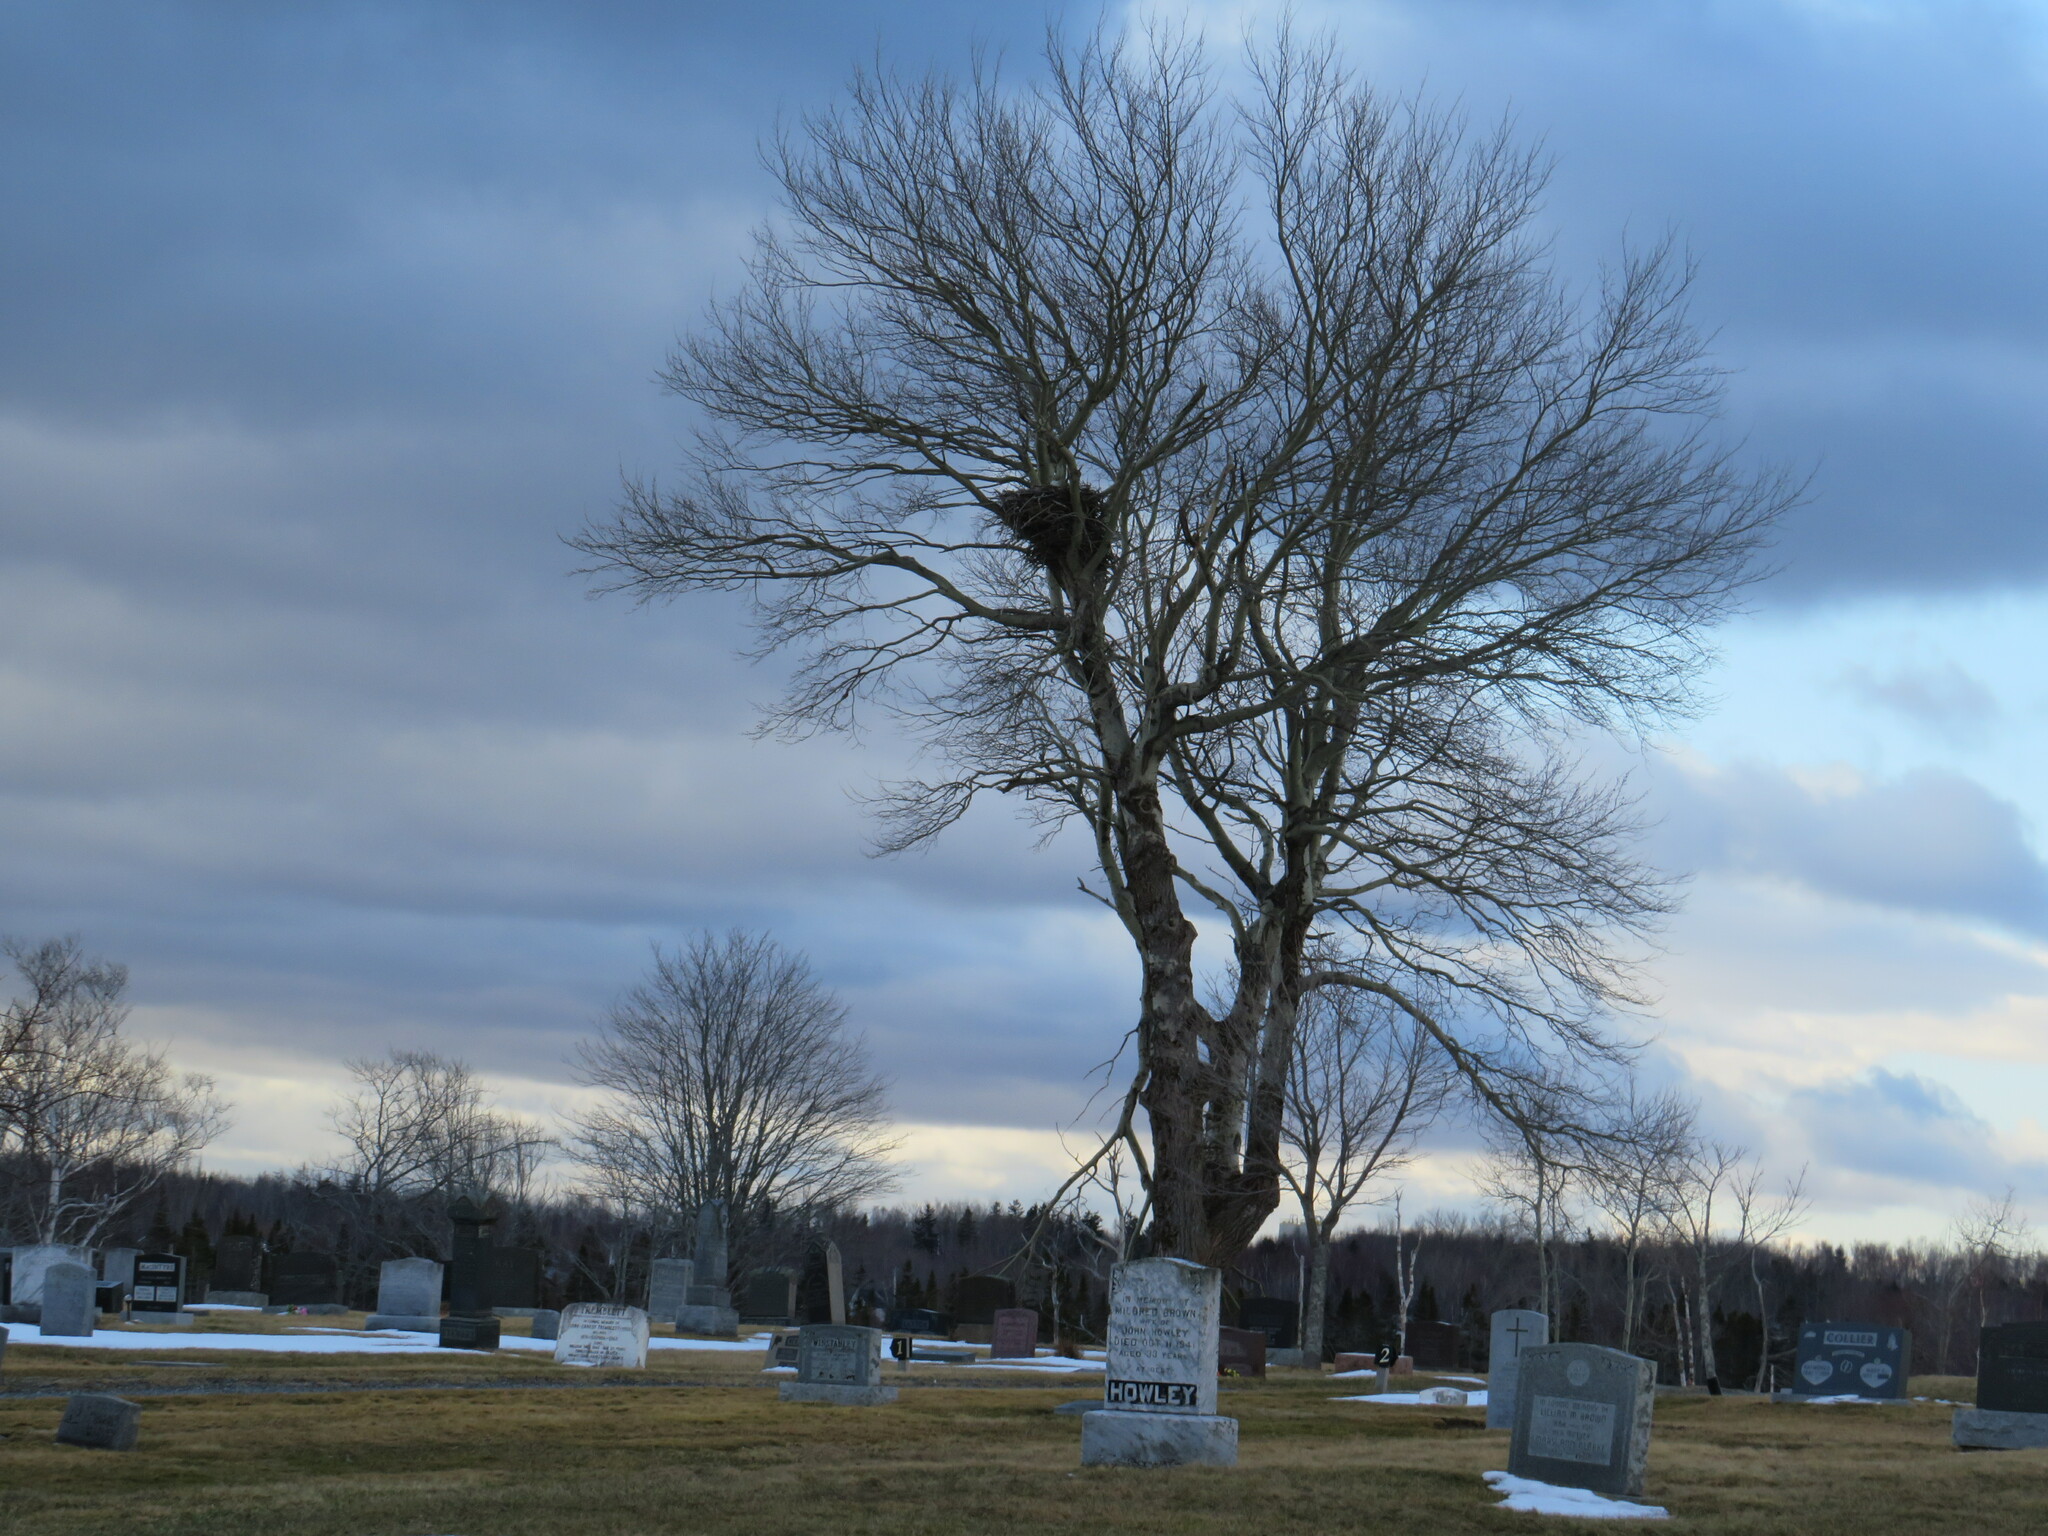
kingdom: Animalia
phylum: Chordata
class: Aves
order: Accipitriformes
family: Accipitridae
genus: Haliaeetus
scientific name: Haliaeetus leucocephalus
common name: Bald eagle
